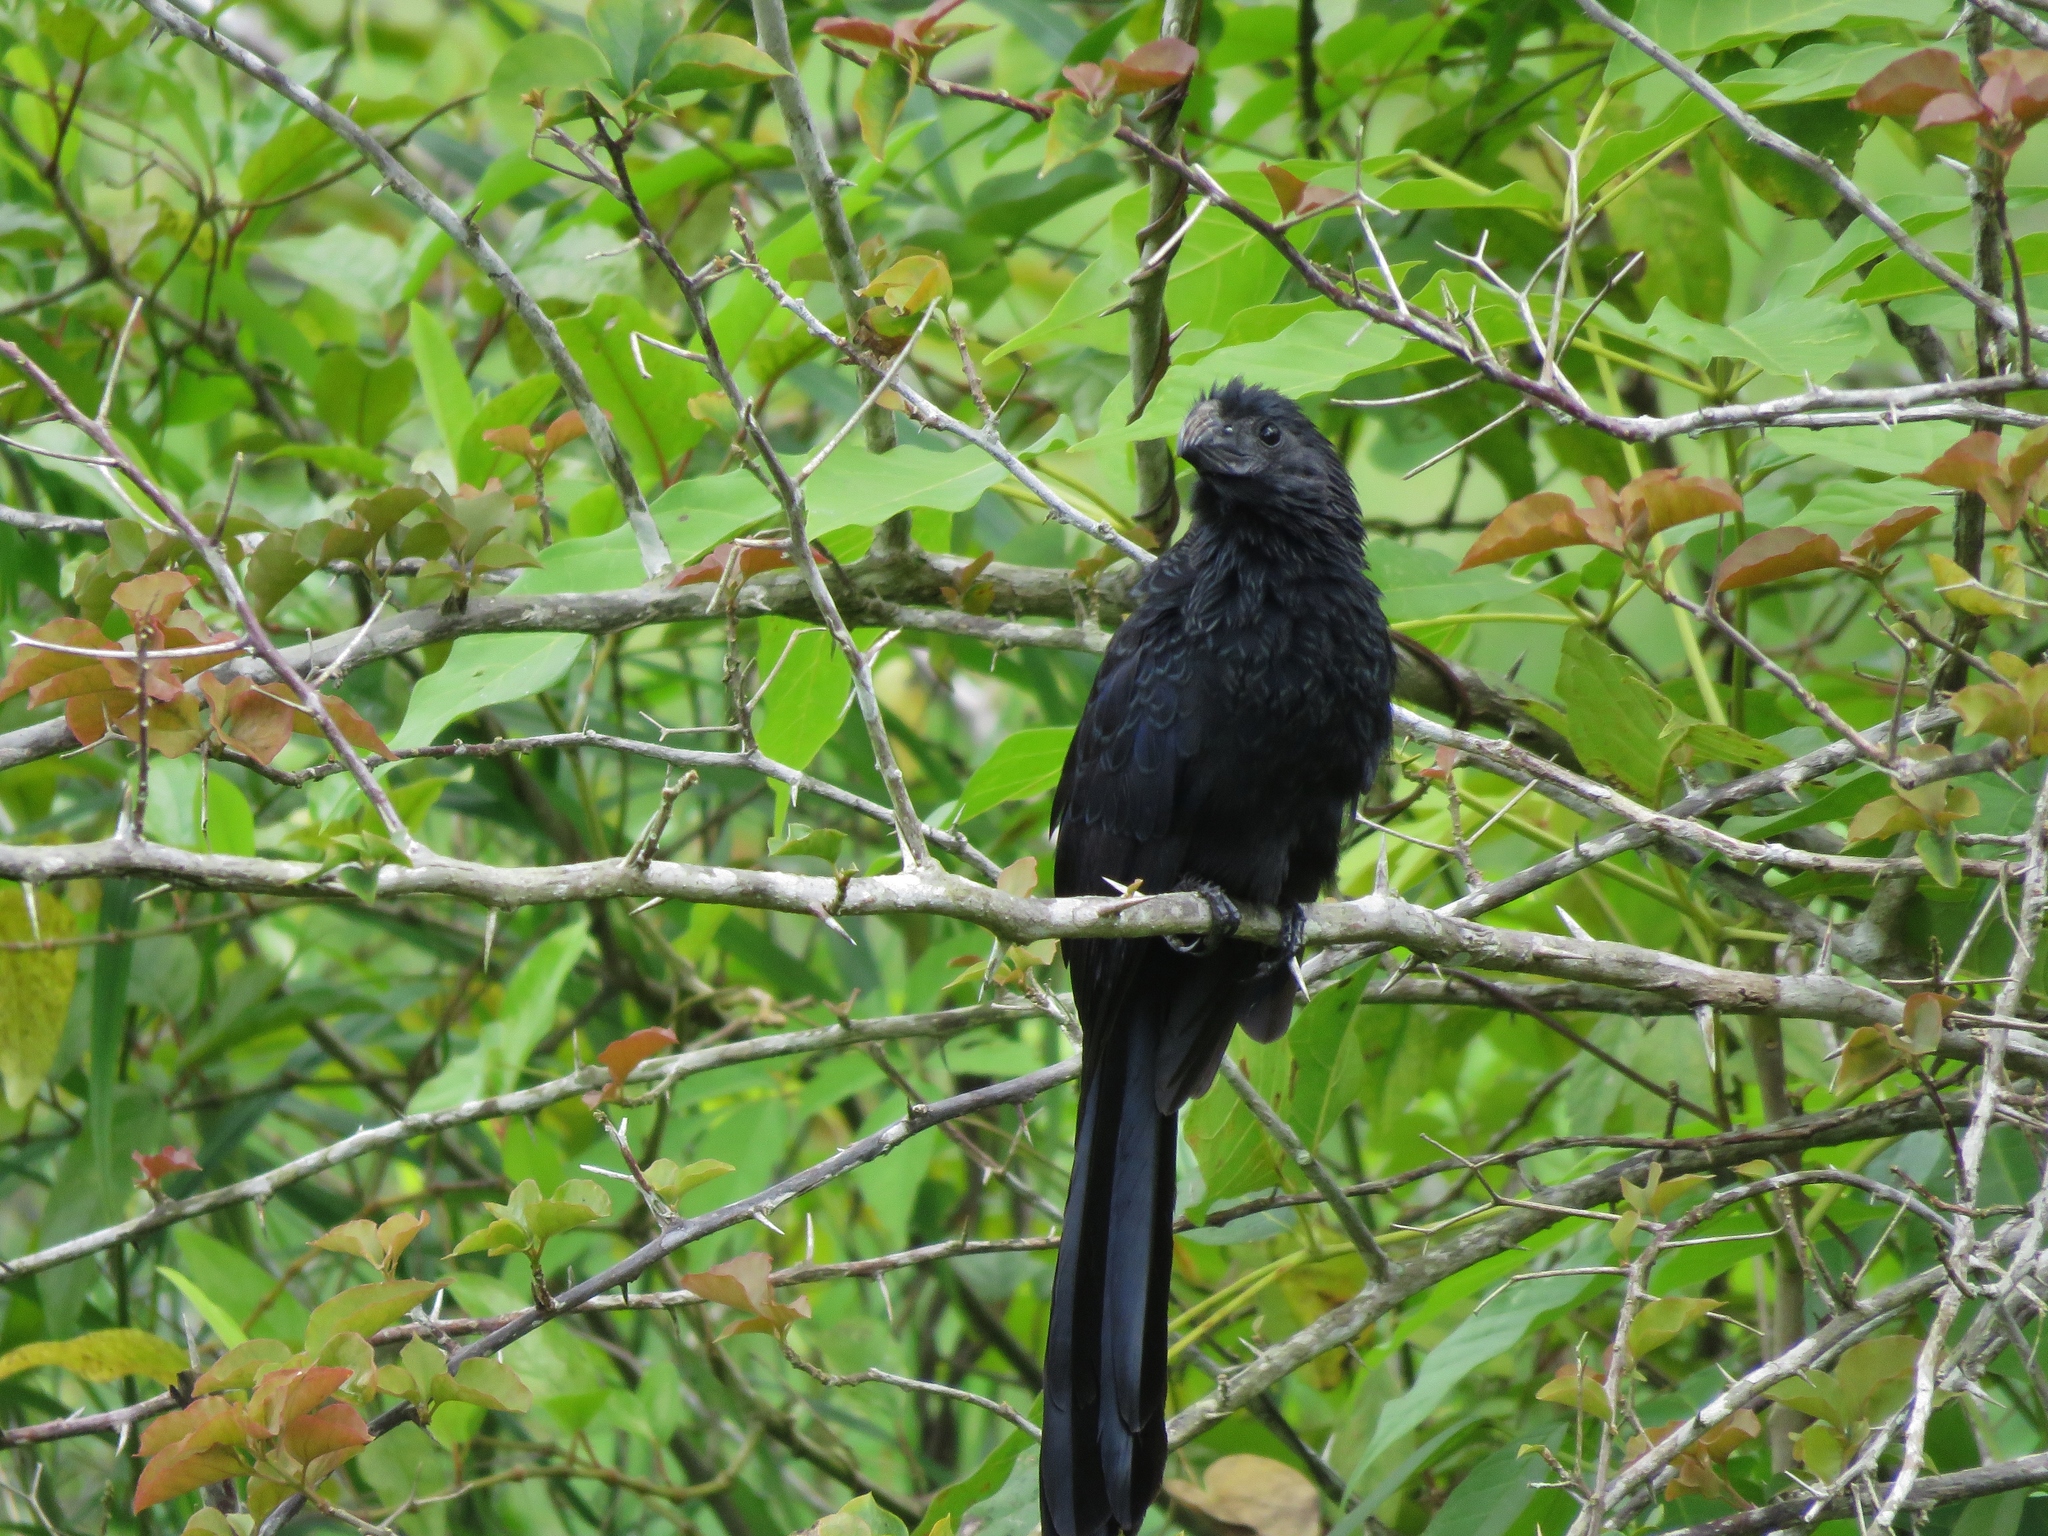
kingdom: Animalia
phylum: Chordata
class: Aves
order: Cuculiformes
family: Cuculidae
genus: Crotophaga
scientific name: Crotophaga sulcirostris
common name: Groove-billed ani
